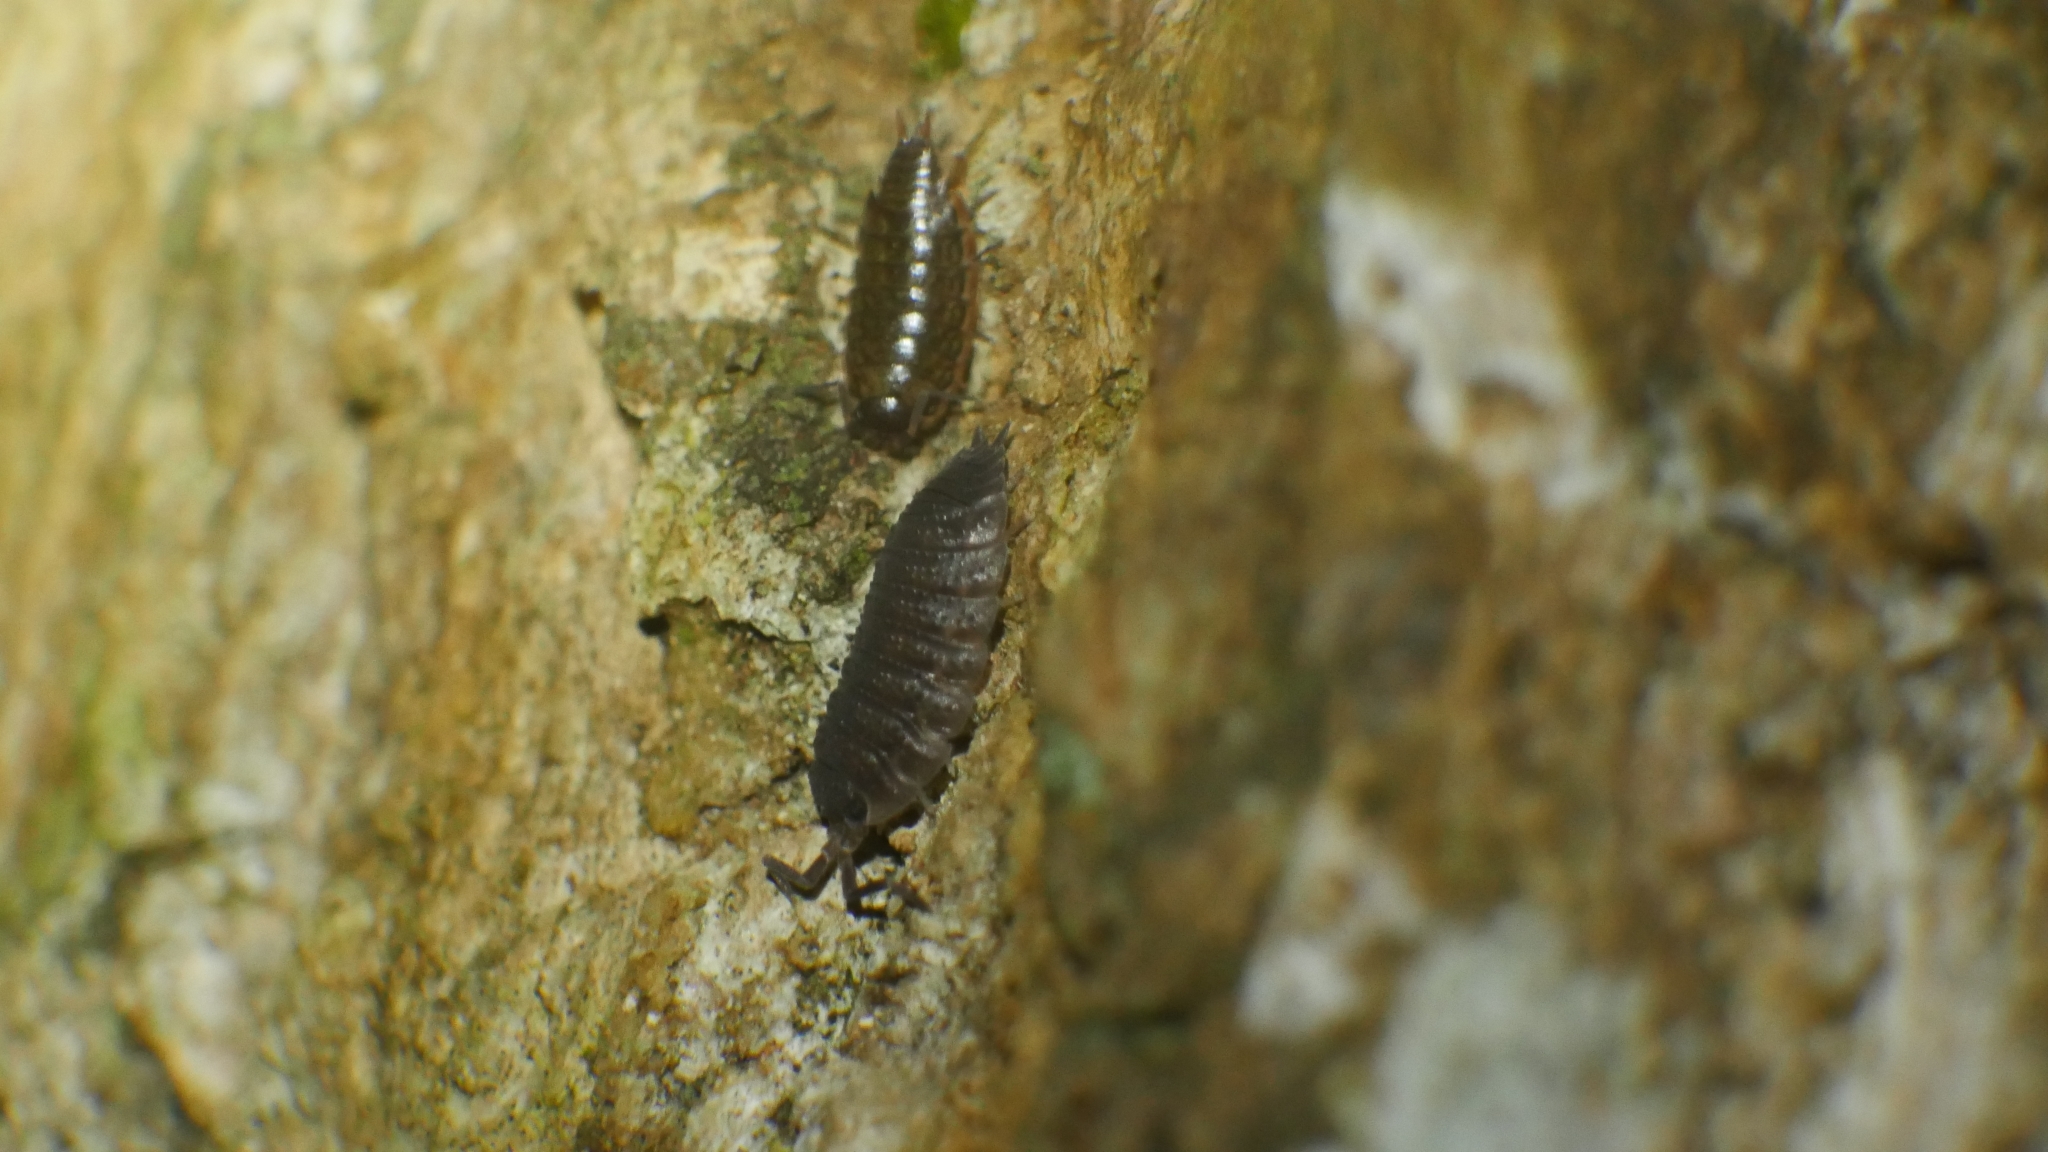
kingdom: Animalia
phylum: Arthropoda
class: Malacostraca
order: Isopoda
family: Porcellionidae
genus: Porcellio
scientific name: Porcellio scaber
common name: Common rough woodlouse
